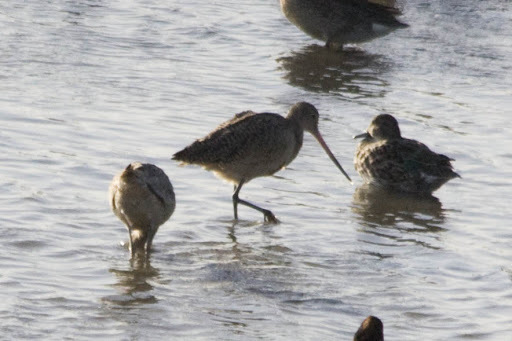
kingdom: Animalia
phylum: Chordata
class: Aves
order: Charadriiformes
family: Scolopacidae
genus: Limosa
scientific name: Limosa fedoa
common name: Marbled godwit
